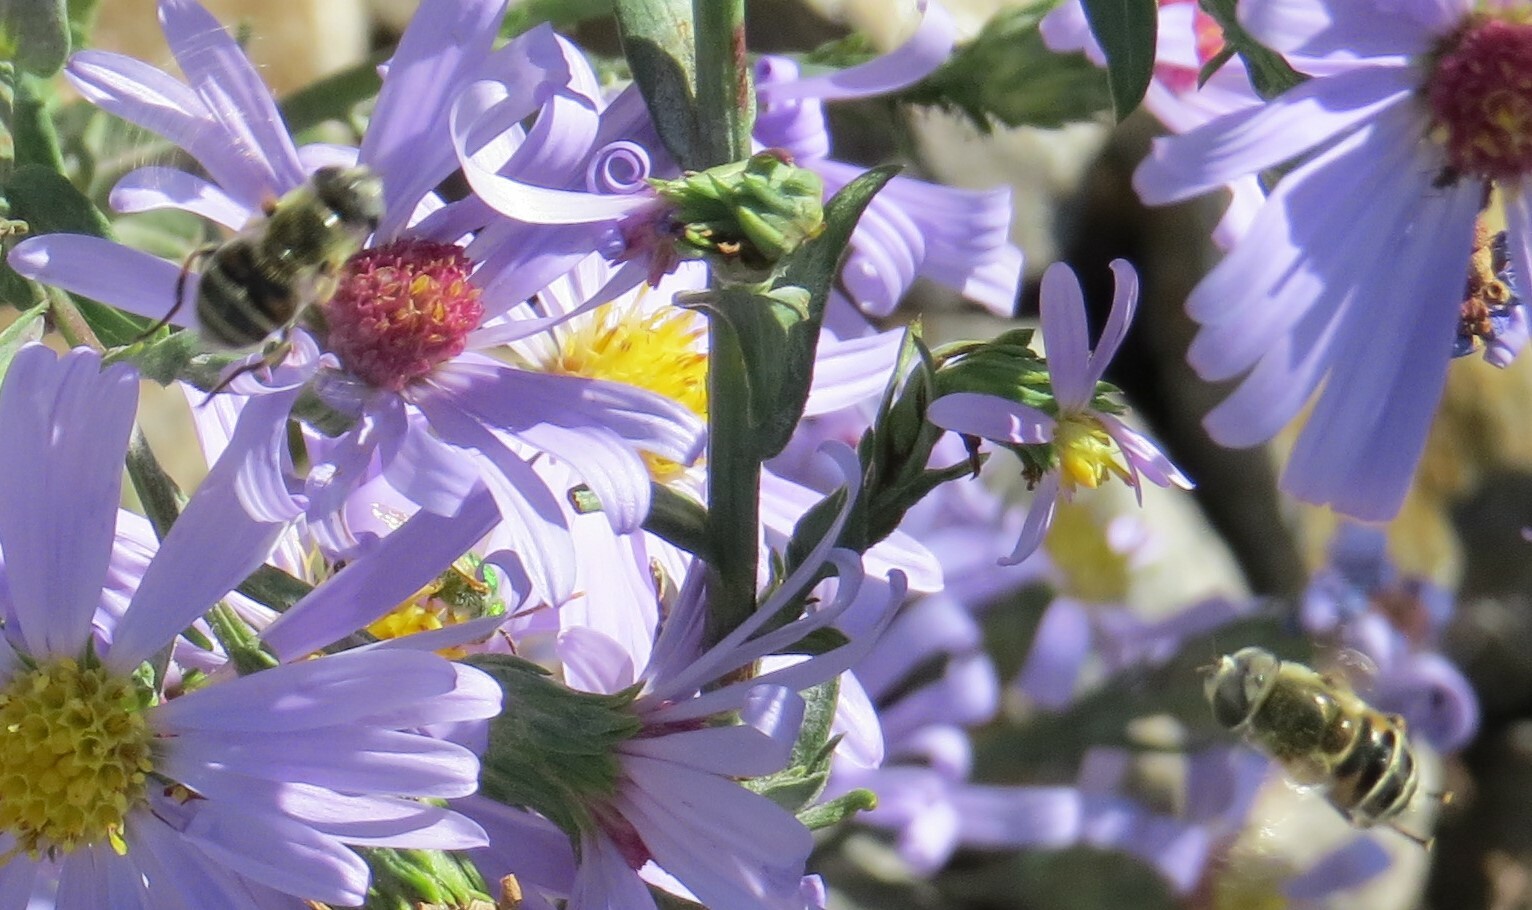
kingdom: Animalia
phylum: Arthropoda
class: Insecta
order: Diptera
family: Syrphidae
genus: Eristalis
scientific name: Eristalis stipator
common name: Yellow-shouldered drone fly
